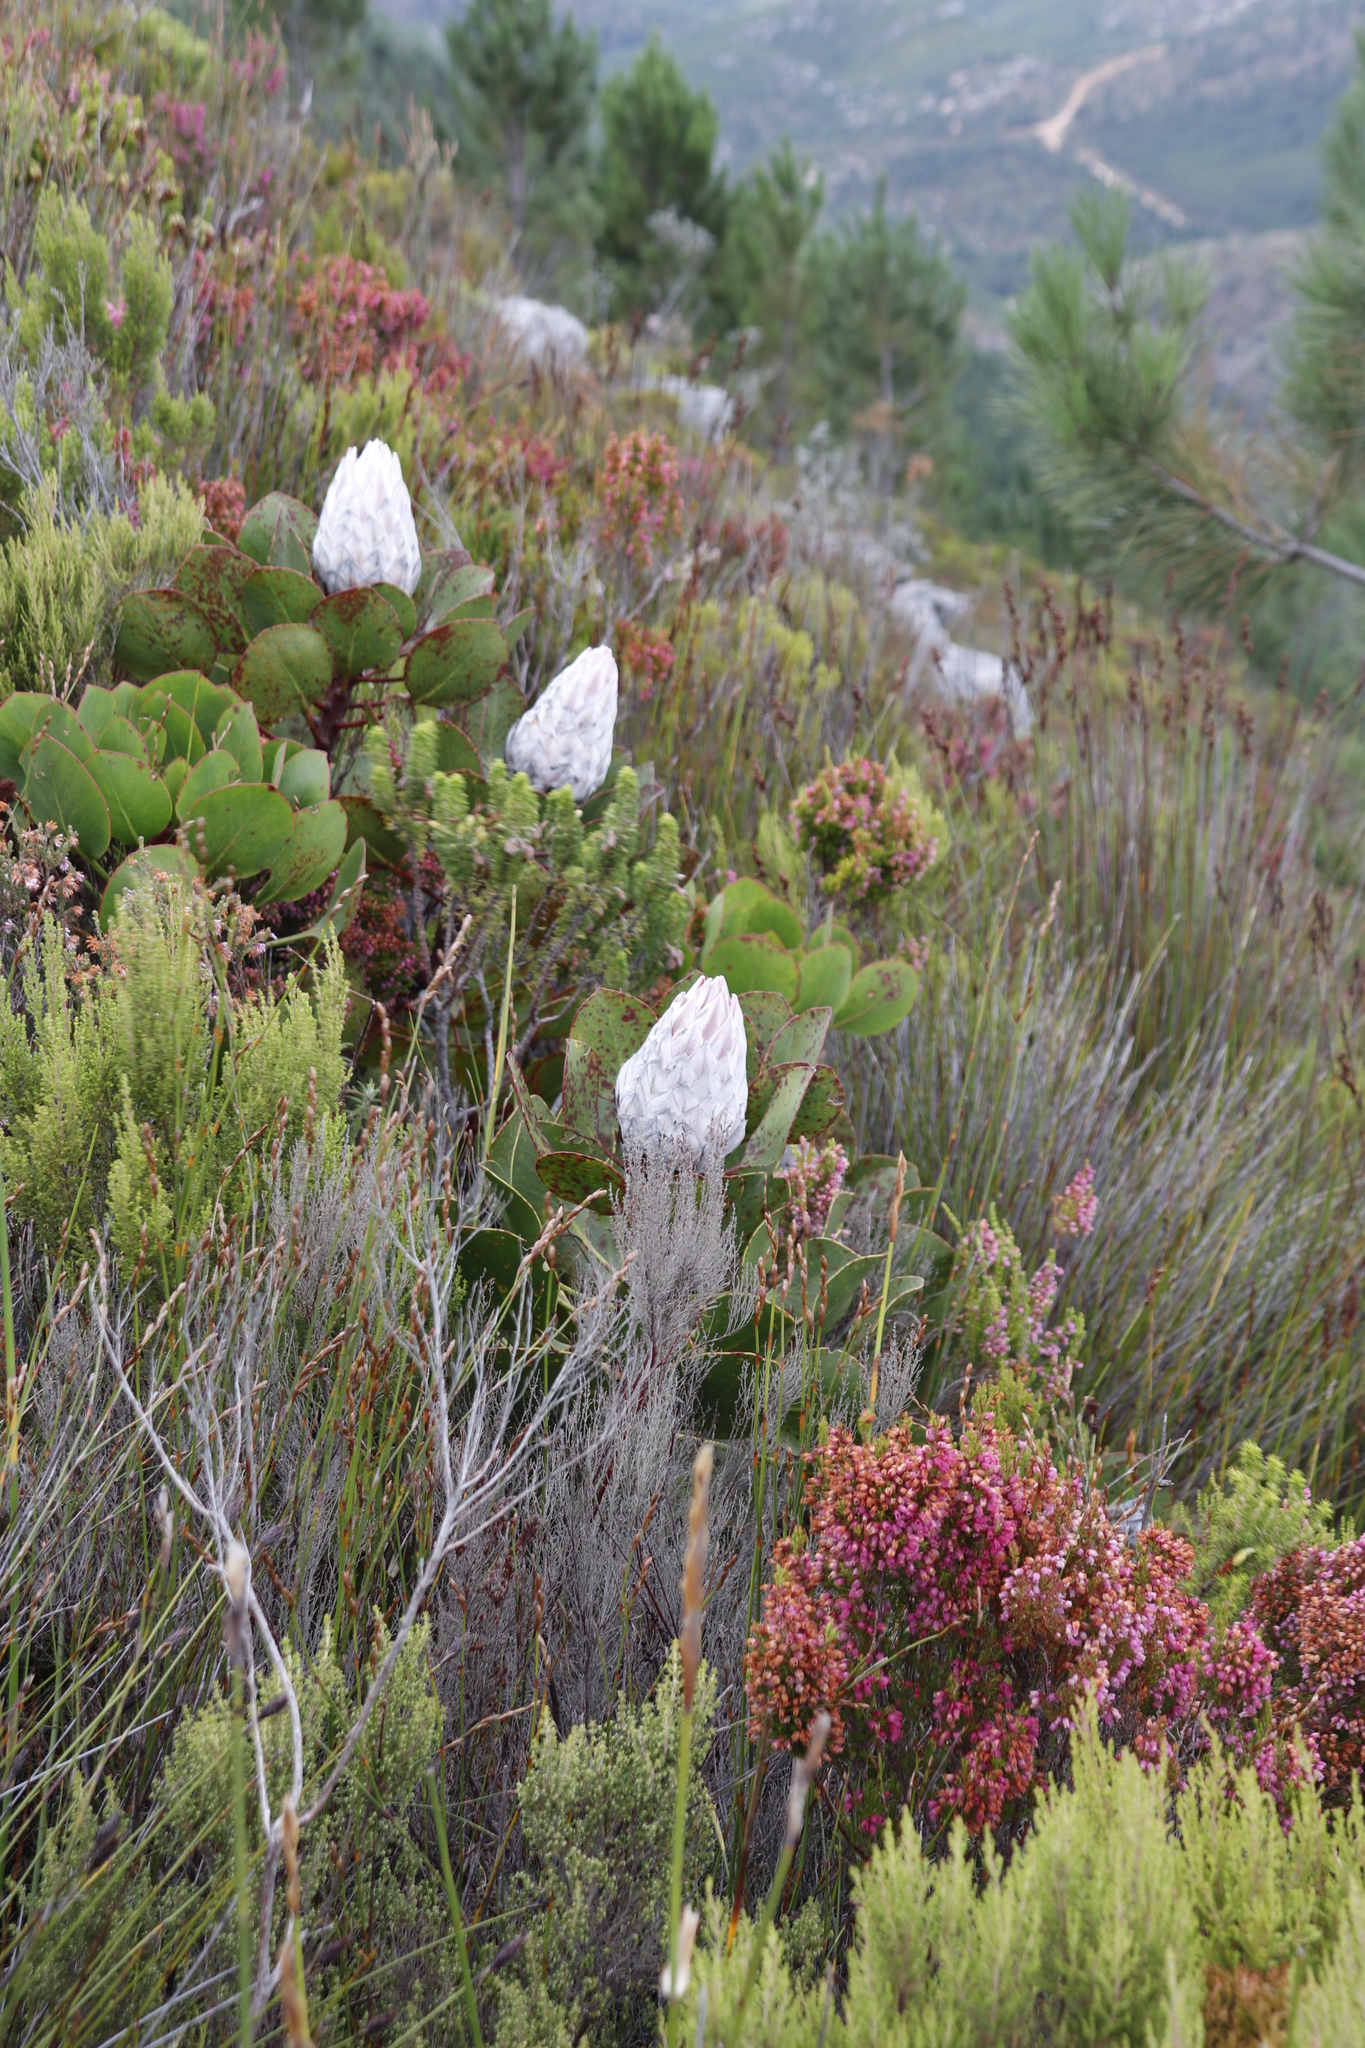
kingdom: Plantae
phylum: Tracheophyta
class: Magnoliopsida
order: Proteales
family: Proteaceae
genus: Protea
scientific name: Protea cynaroides
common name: King protea
